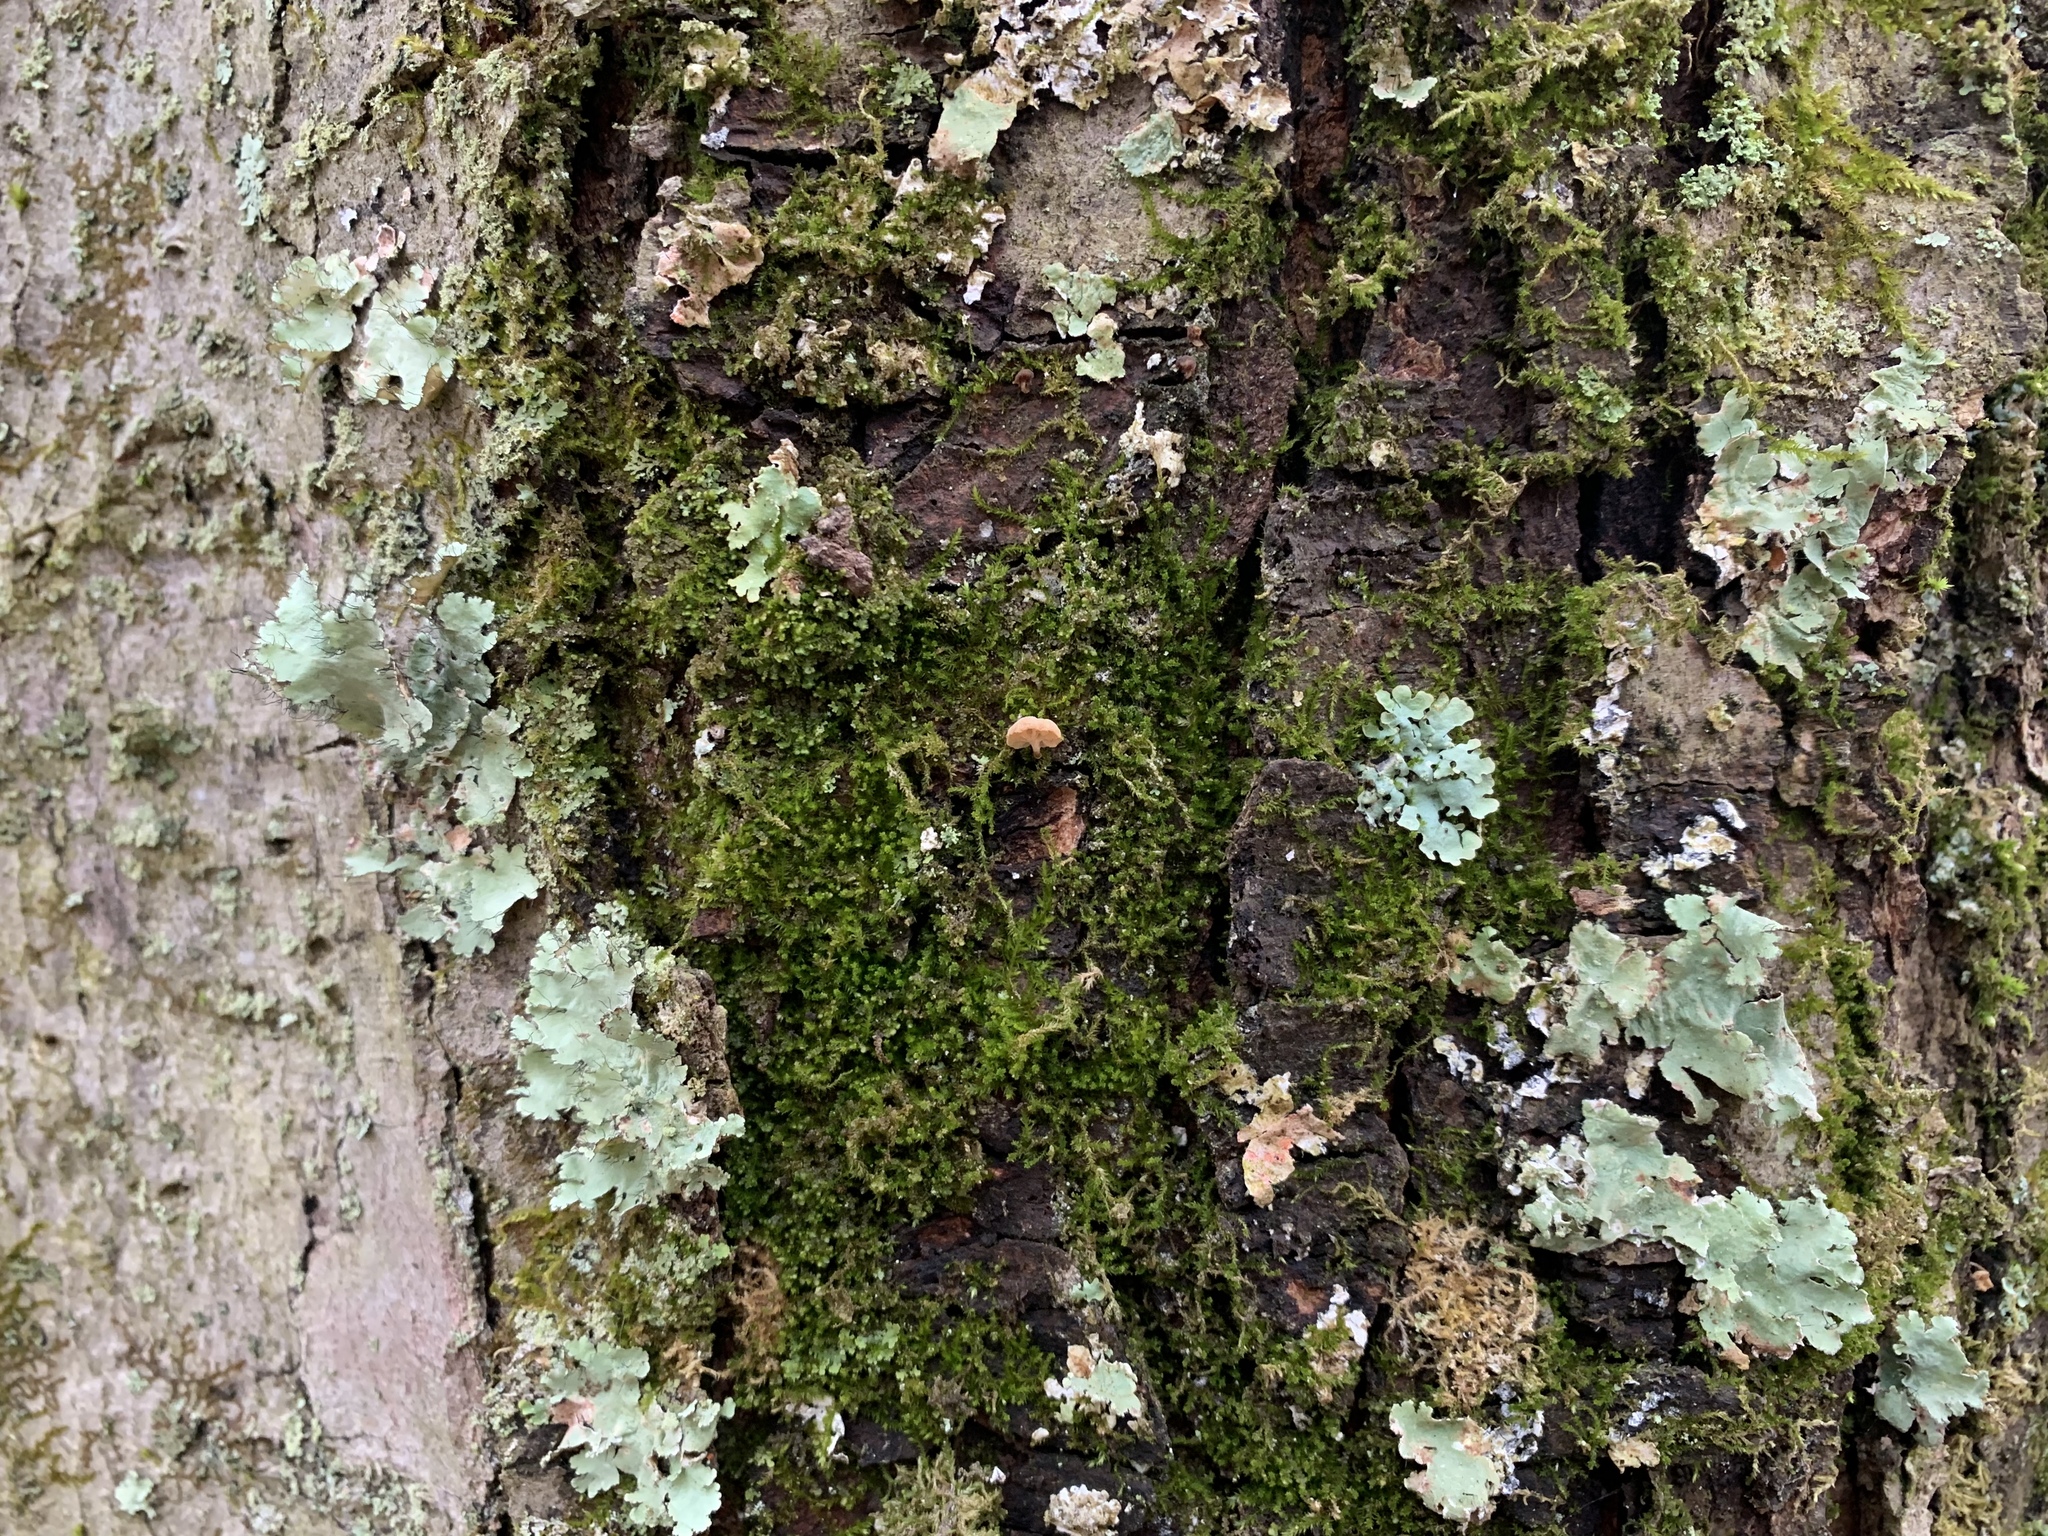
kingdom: Fungi
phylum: Basidiomycota
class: Agaricomycetes
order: Agaricales
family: Mycenaceae
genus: Mycena
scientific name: Mycena corticola
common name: Bark mycena
